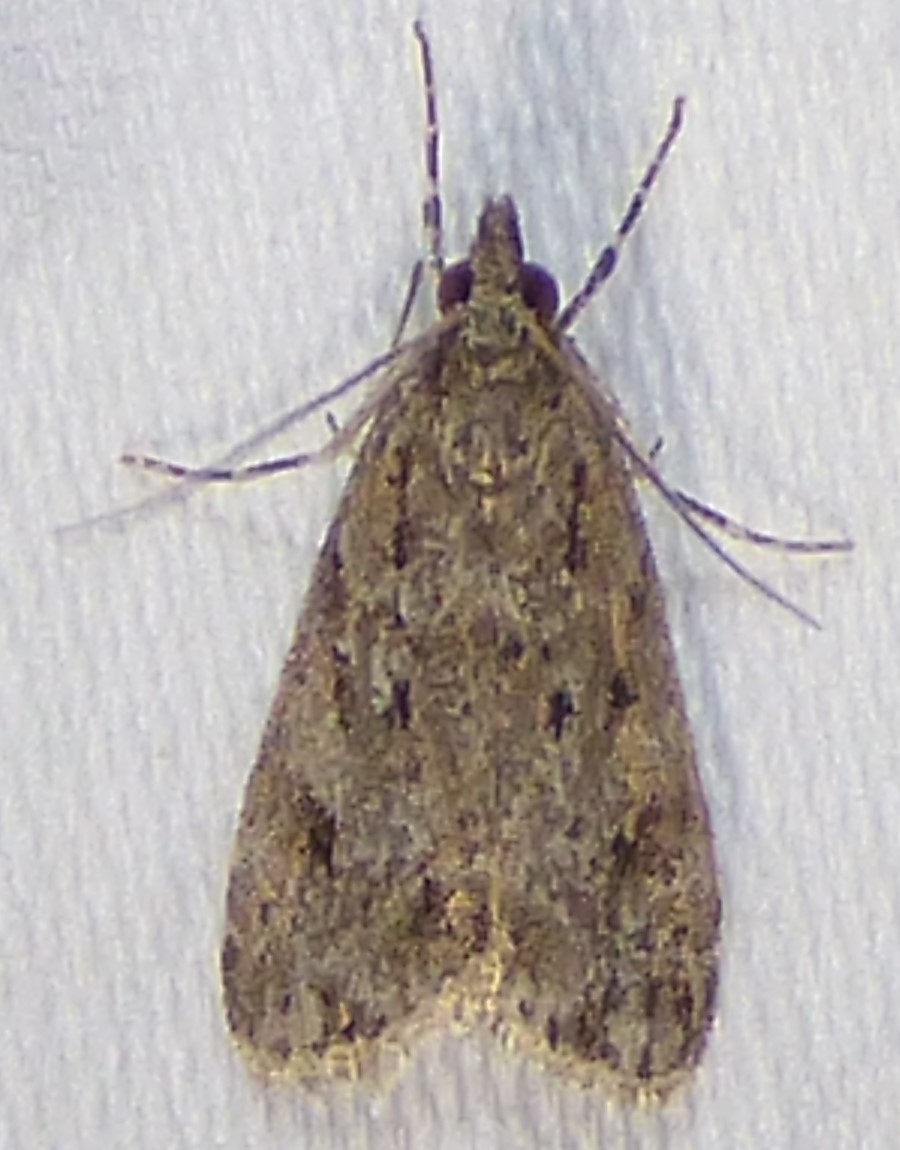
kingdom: Animalia
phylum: Arthropoda
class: Insecta
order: Lepidoptera
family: Crambidae
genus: Eudonia
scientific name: Eudonia heterosalis
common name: Mcdunnough's eudonia
